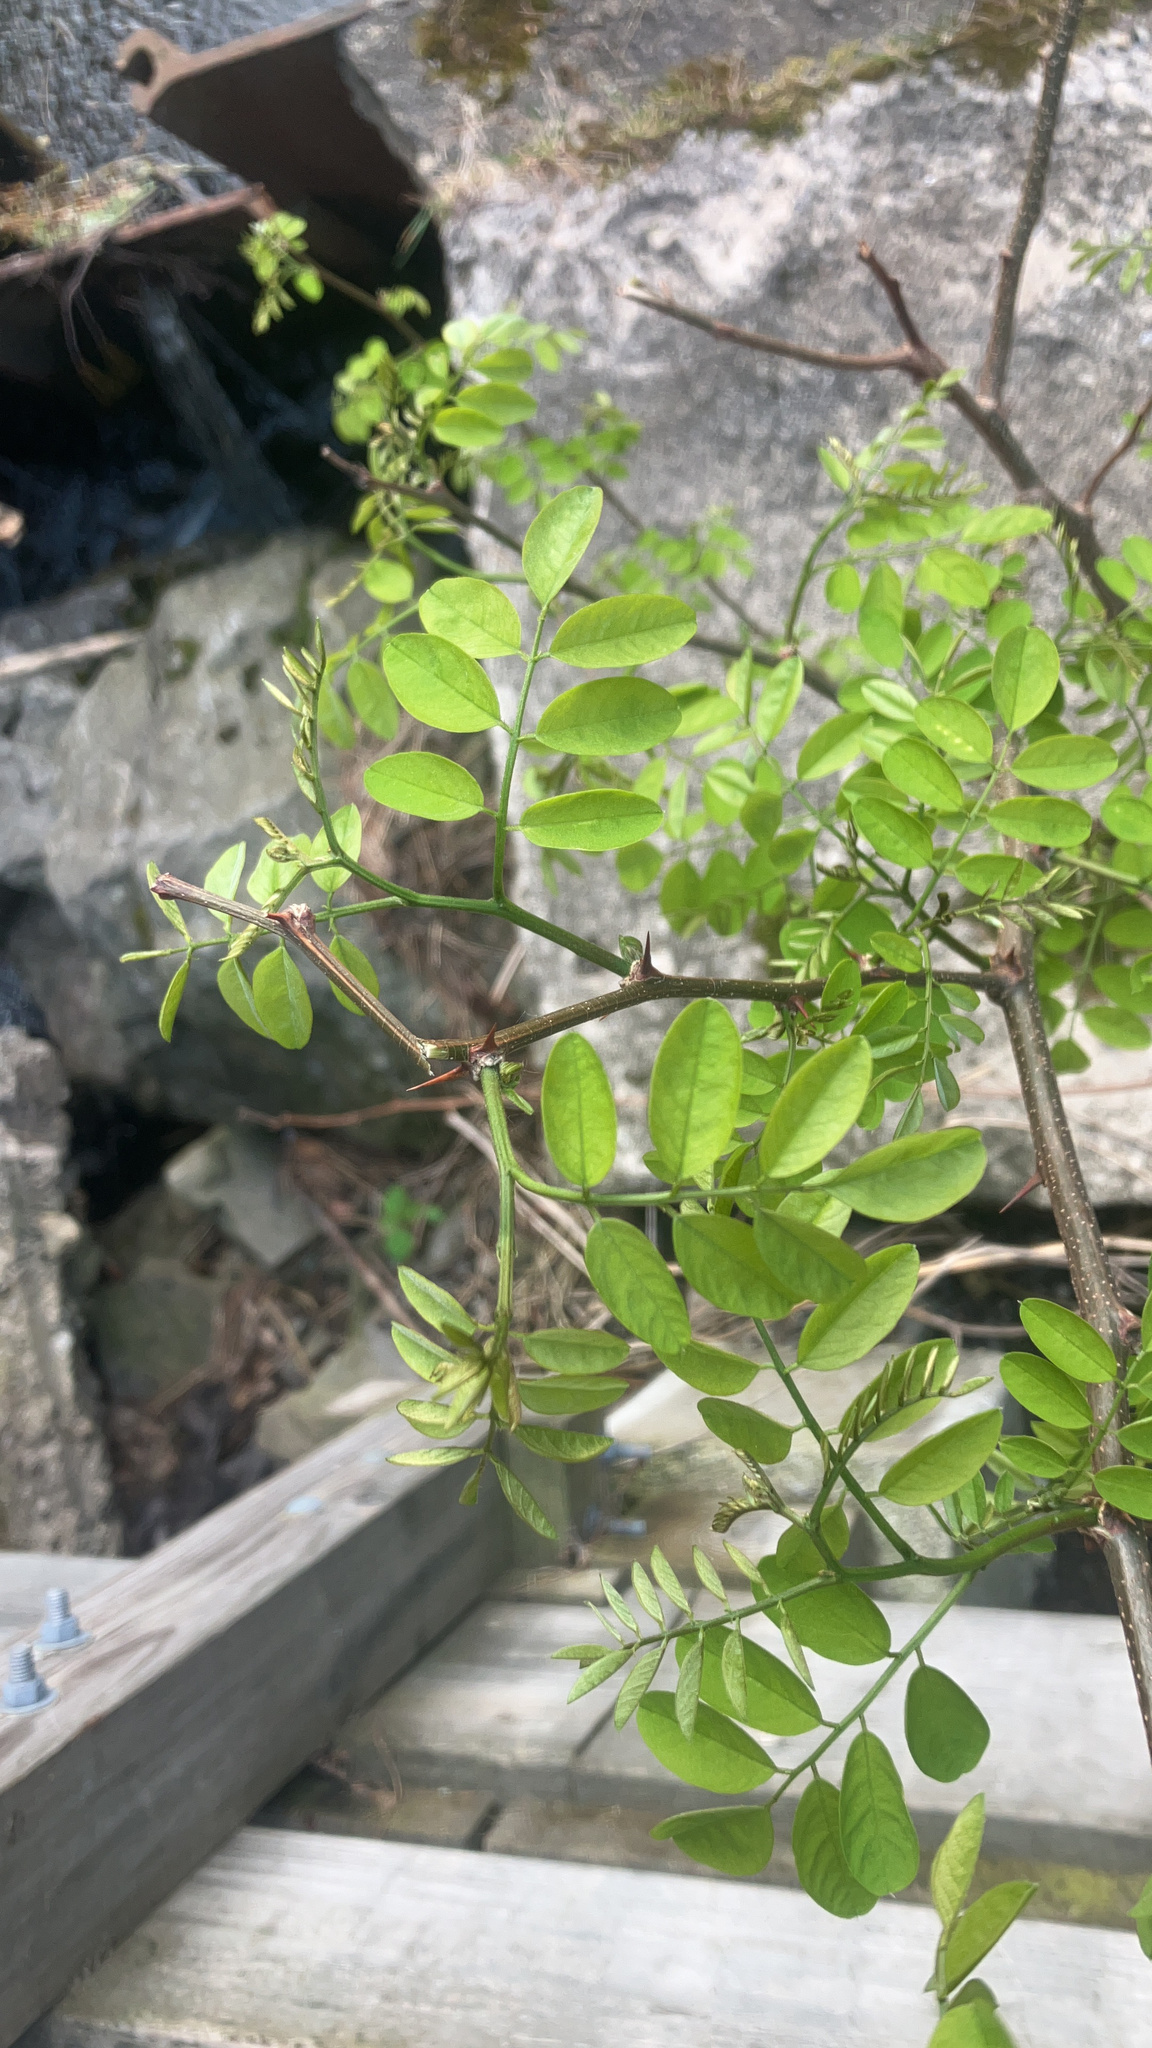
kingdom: Plantae
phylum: Tracheophyta
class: Magnoliopsida
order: Fabales
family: Fabaceae
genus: Robinia
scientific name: Robinia pseudoacacia
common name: Black locust
